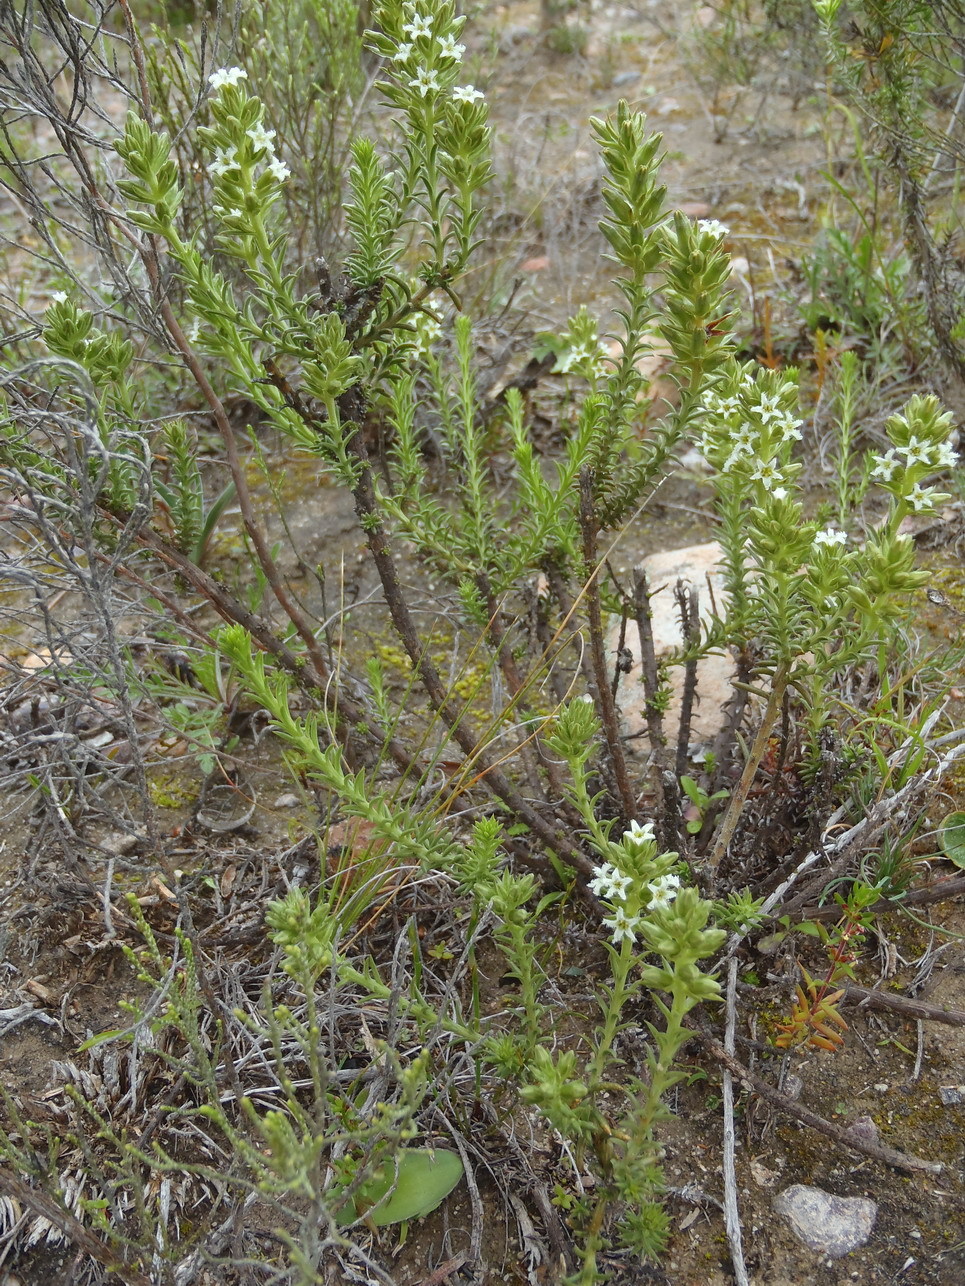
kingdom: Plantae
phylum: Tracheophyta
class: Magnoliopsida
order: Santalales
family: Thesiaceae
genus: Thesium
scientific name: Thesium karooicum
